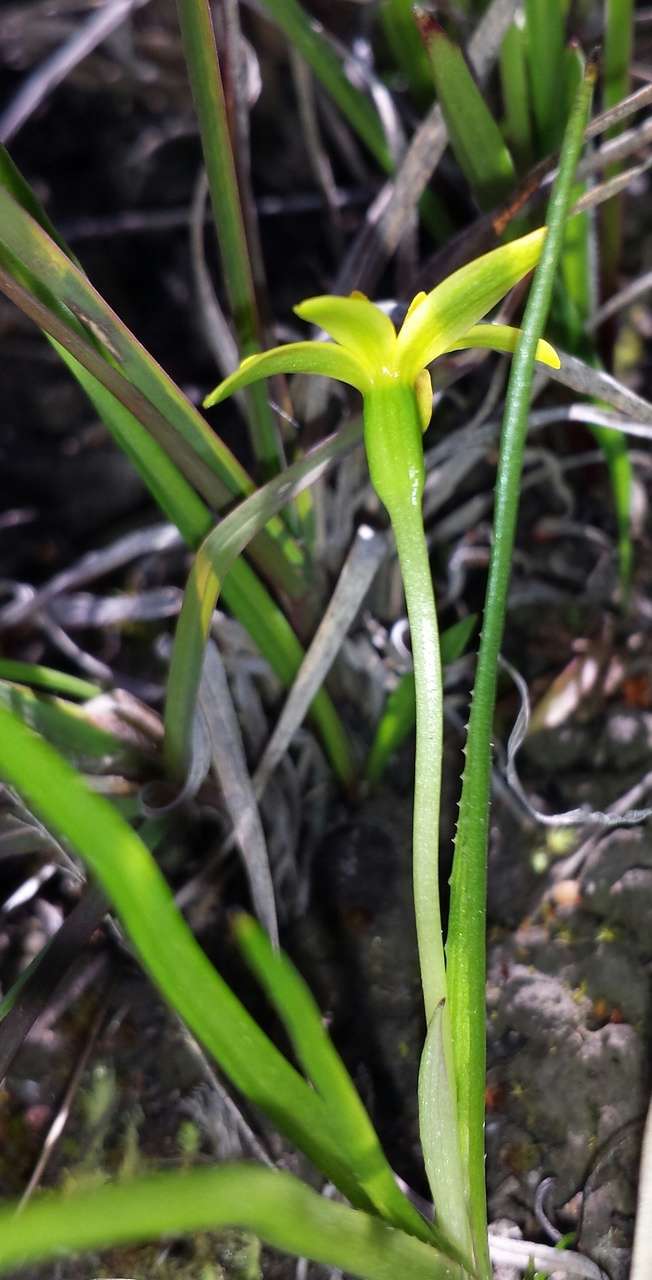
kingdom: Plantae
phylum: Tracheophyta
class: Liliopsida
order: Asparagales
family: Hypoxidaceae
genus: Pauridia
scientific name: Pauridia vaginata
